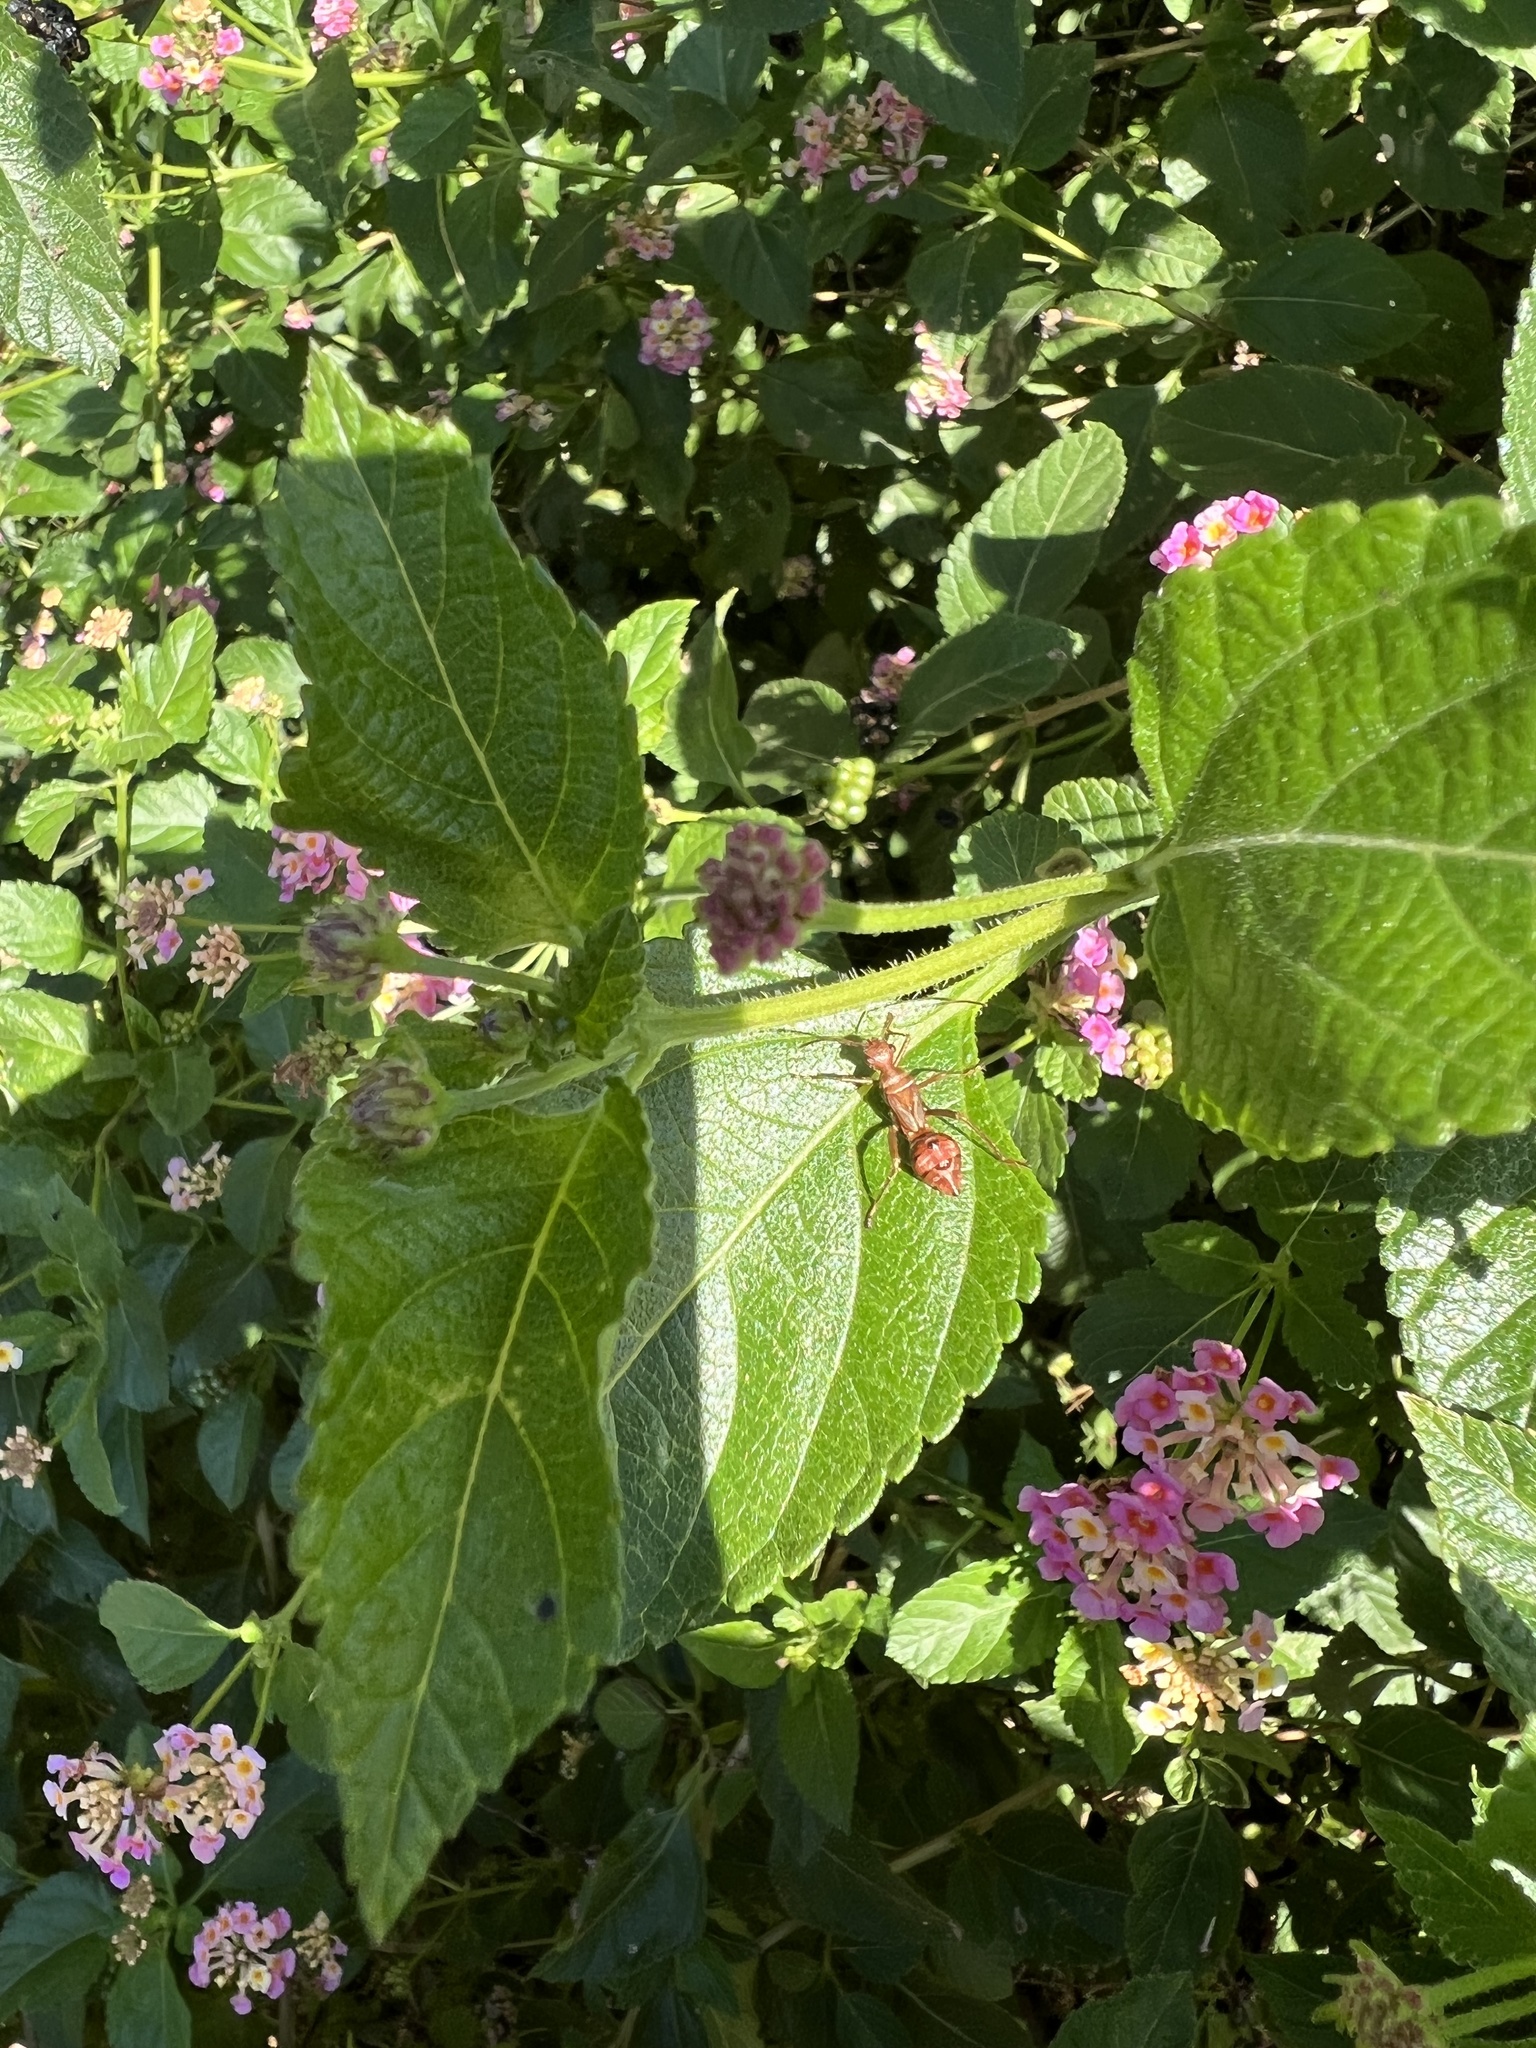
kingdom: Animalia
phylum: Arthropoda
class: Insecta
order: Hemiptera
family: Alydidae
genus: Hyalymenus
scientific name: Hyalymenus tarsatus
